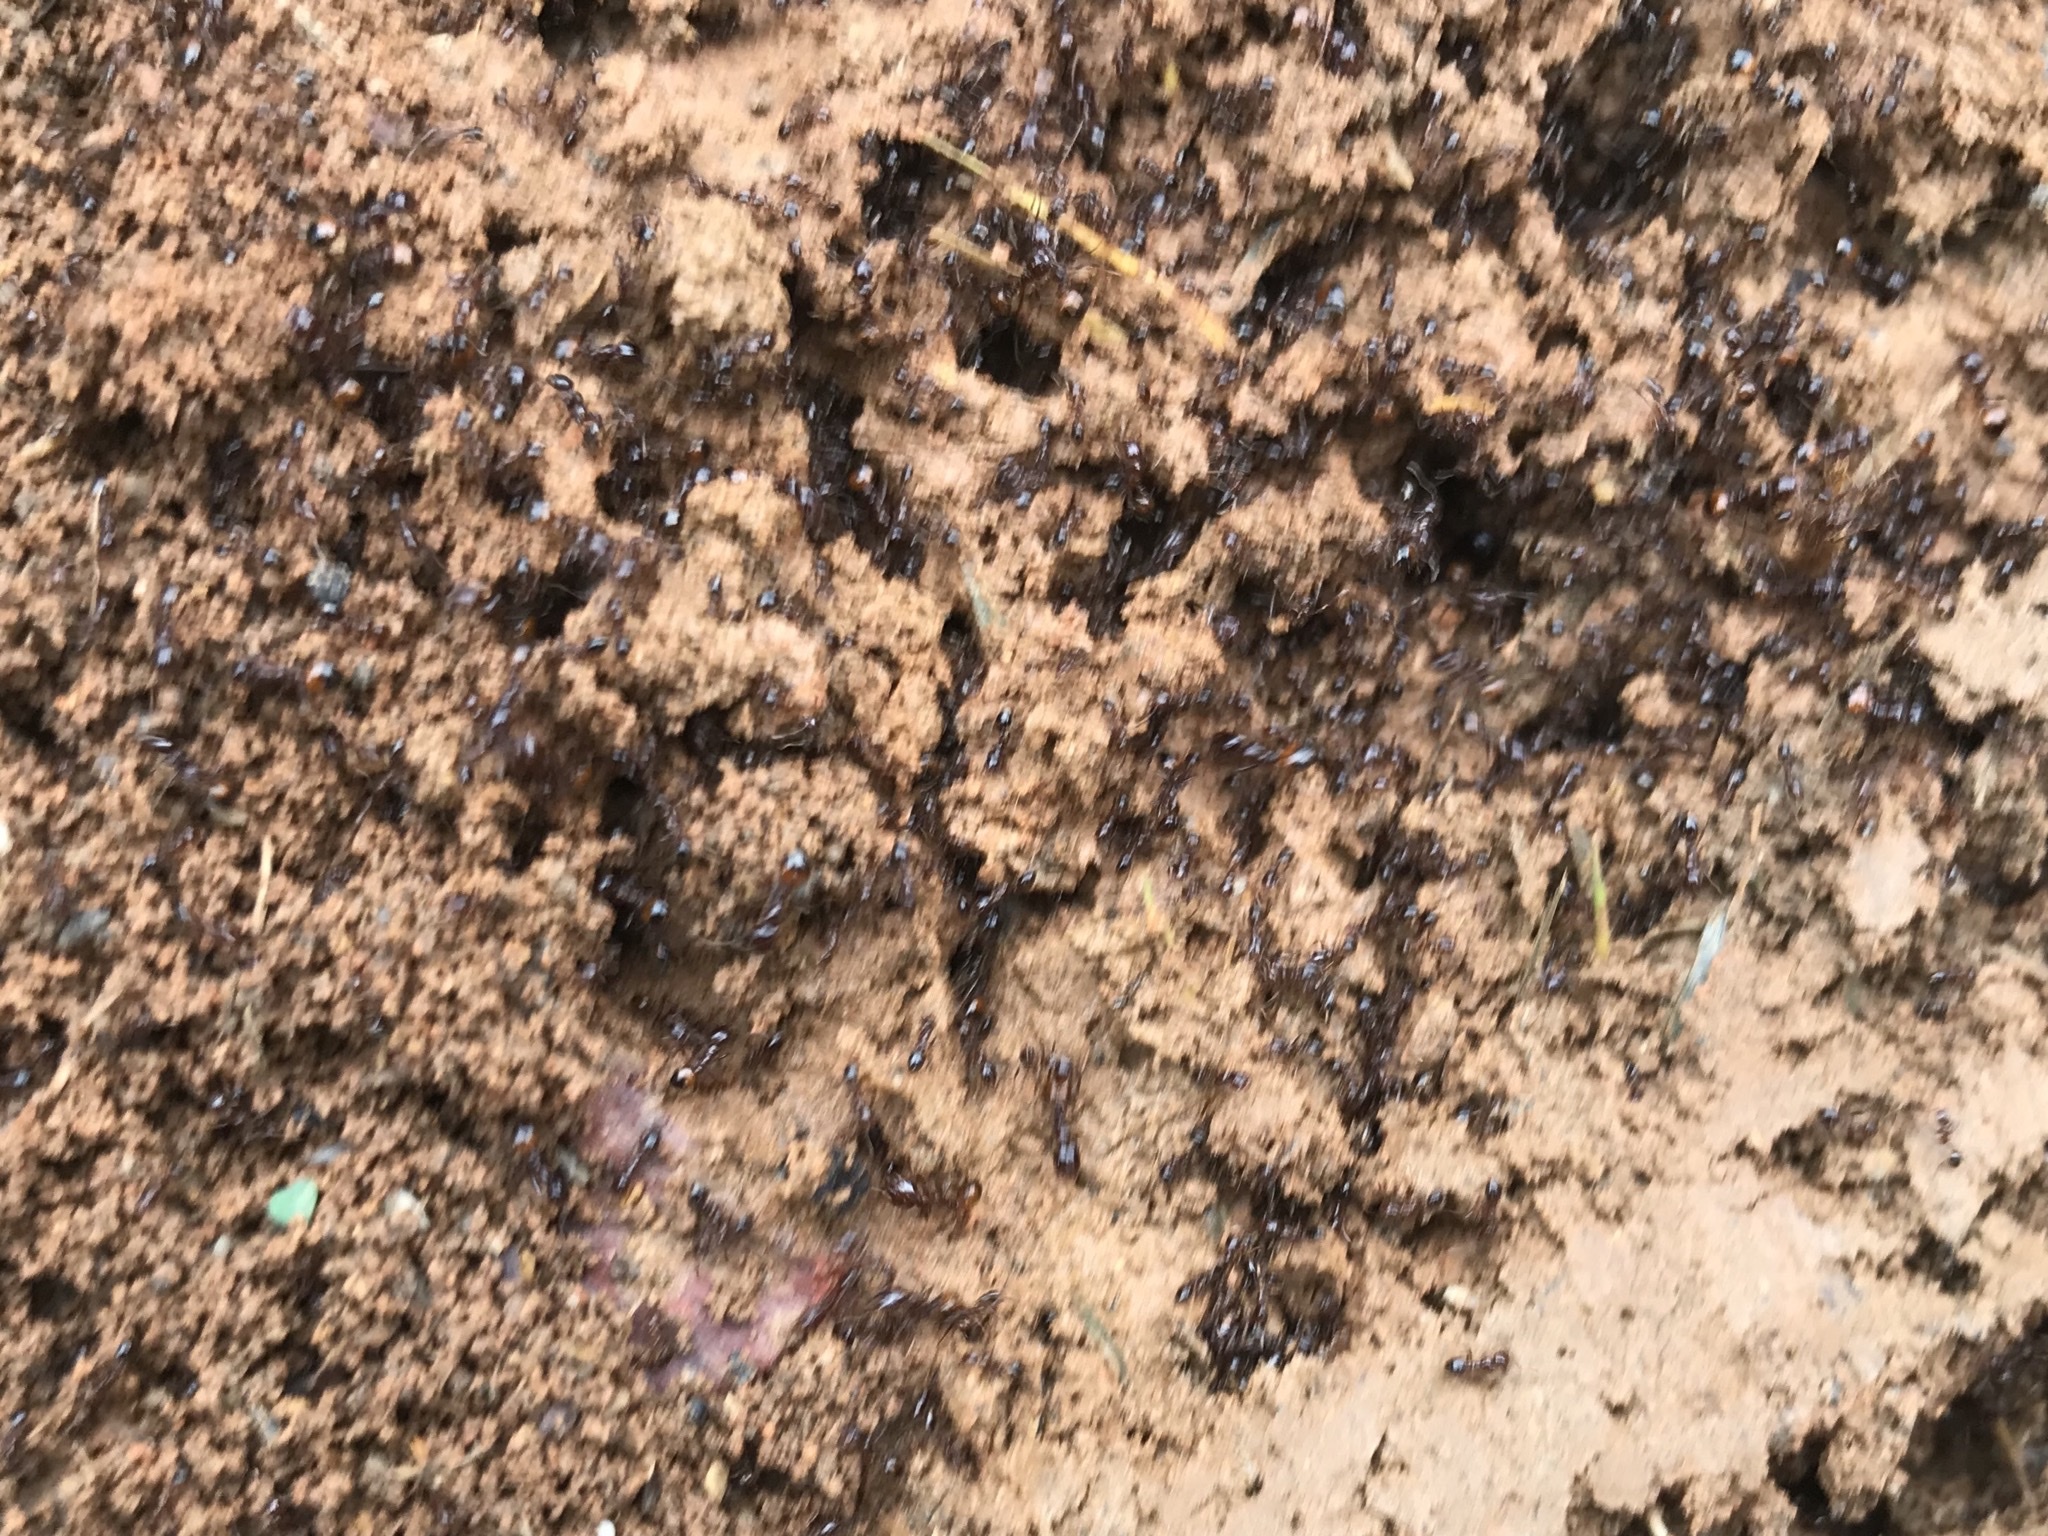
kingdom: Animalia
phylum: Arthropoda
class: Insecta
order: Hymenoptera
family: Formicidae
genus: Solenopsis
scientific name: Solenopsis
